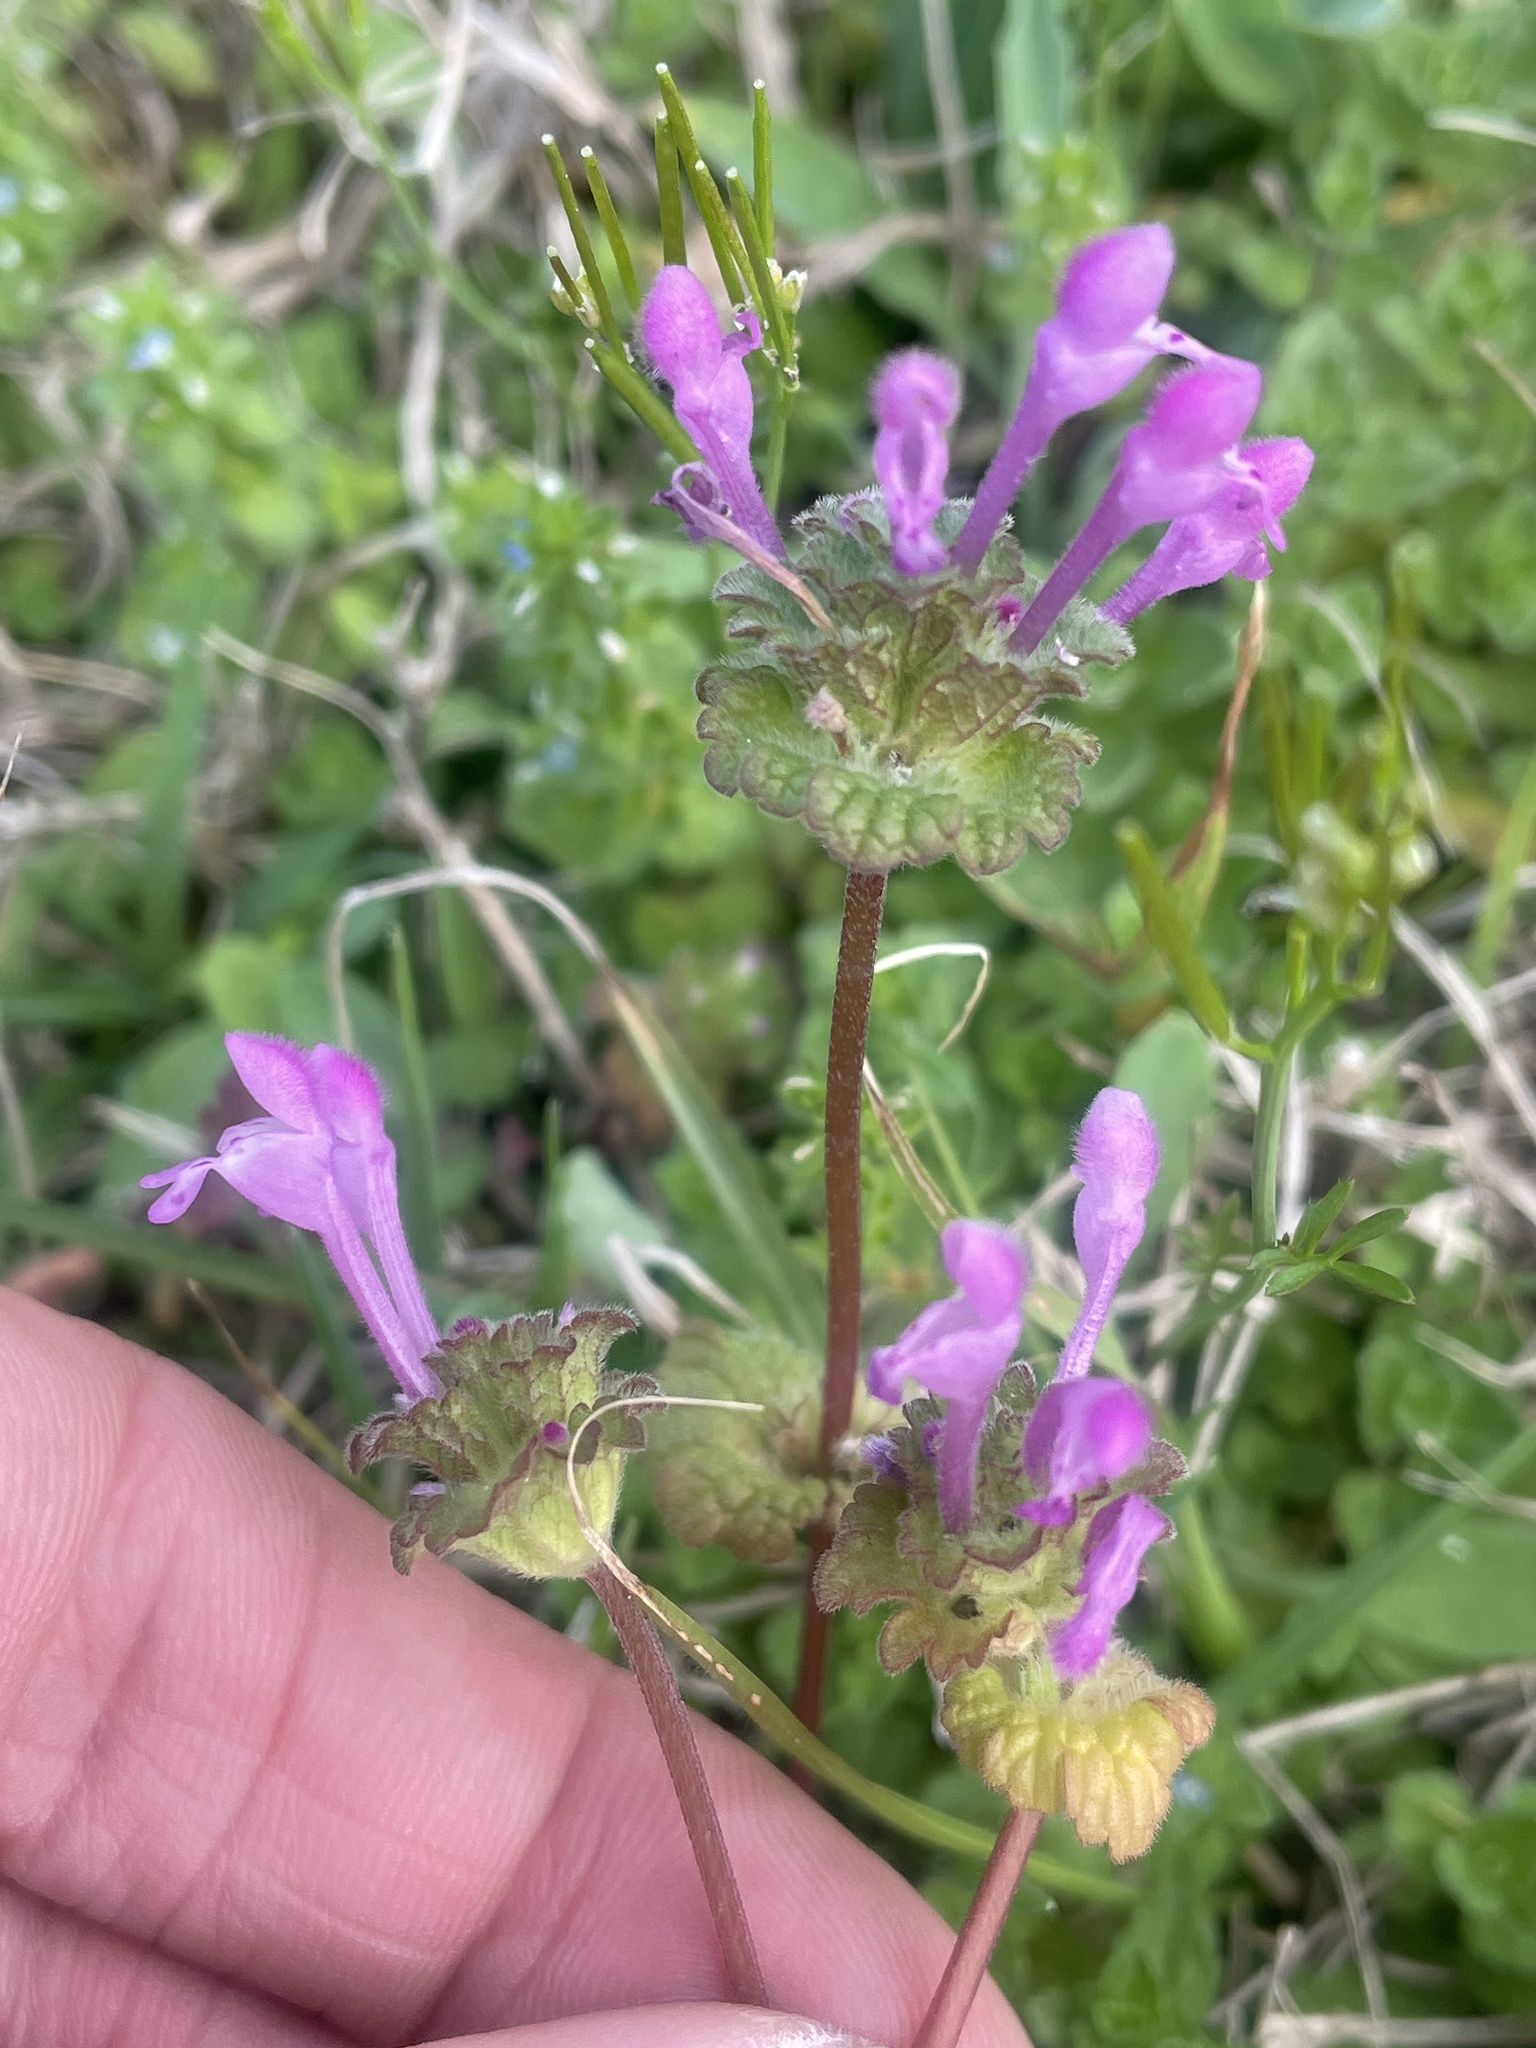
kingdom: Plantae
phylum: Tracheophyta
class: Magnoliopsida
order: Lamiales
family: Lamiaceae
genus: Lamium
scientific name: Lamium amplexicaule
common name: Henbit dead-nettle
